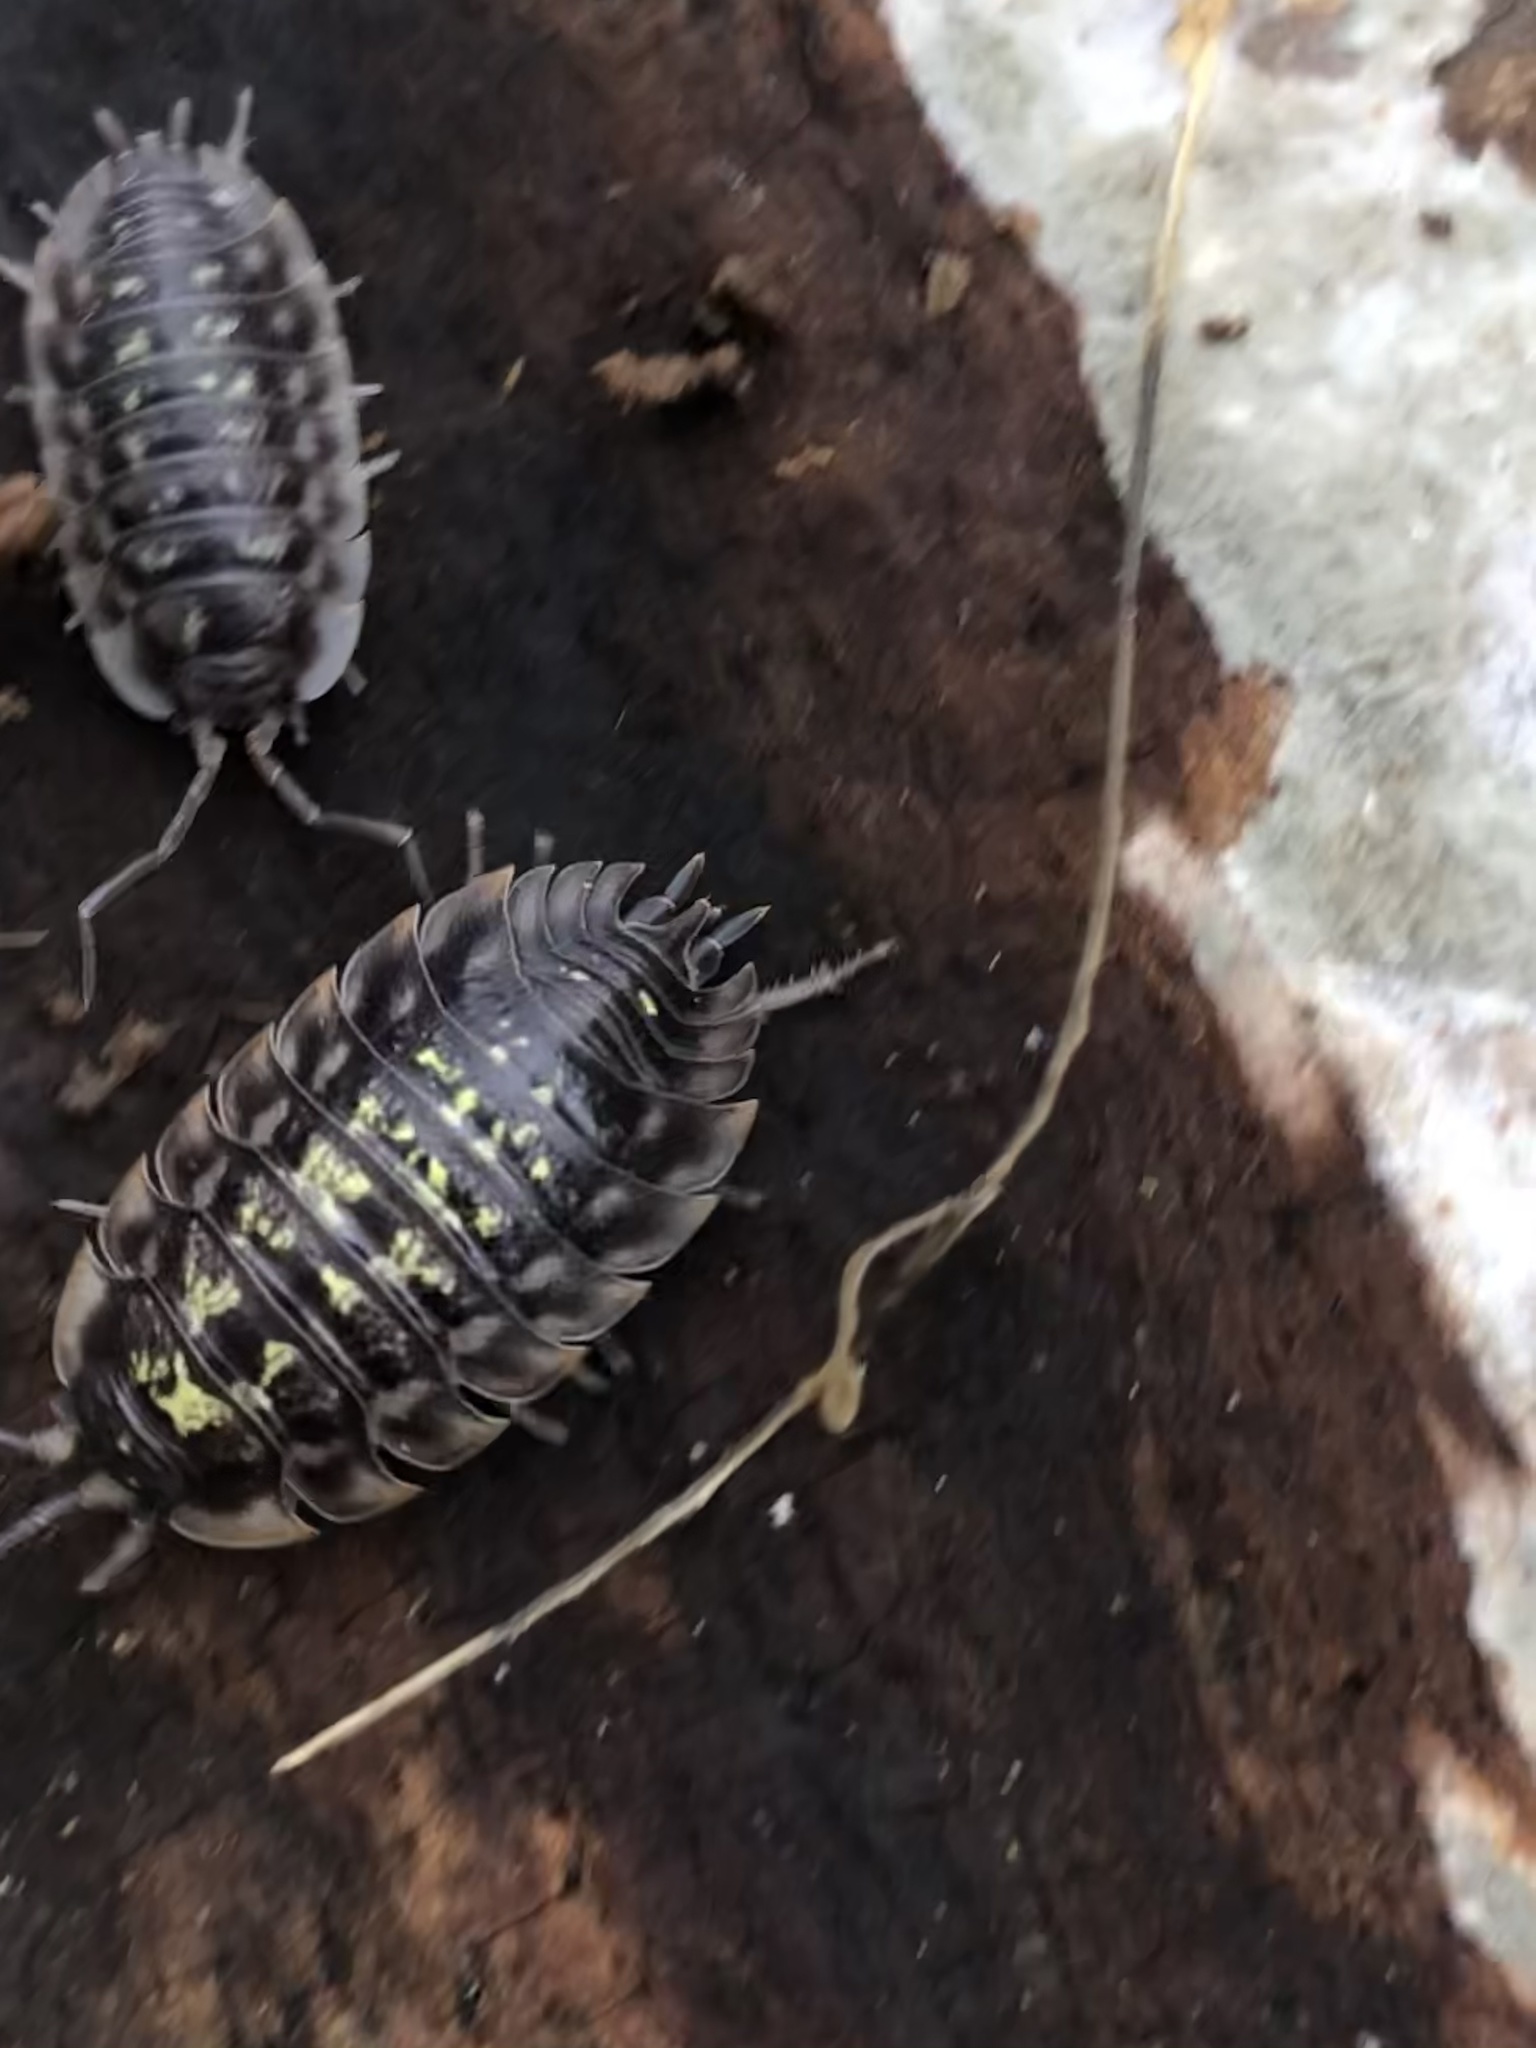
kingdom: Animalia
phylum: Arthropoda
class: Malacostraca
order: Isopoda
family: Oniscidae
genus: Oniscus
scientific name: Oniscus asellus
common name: Common shiny woodlouse
